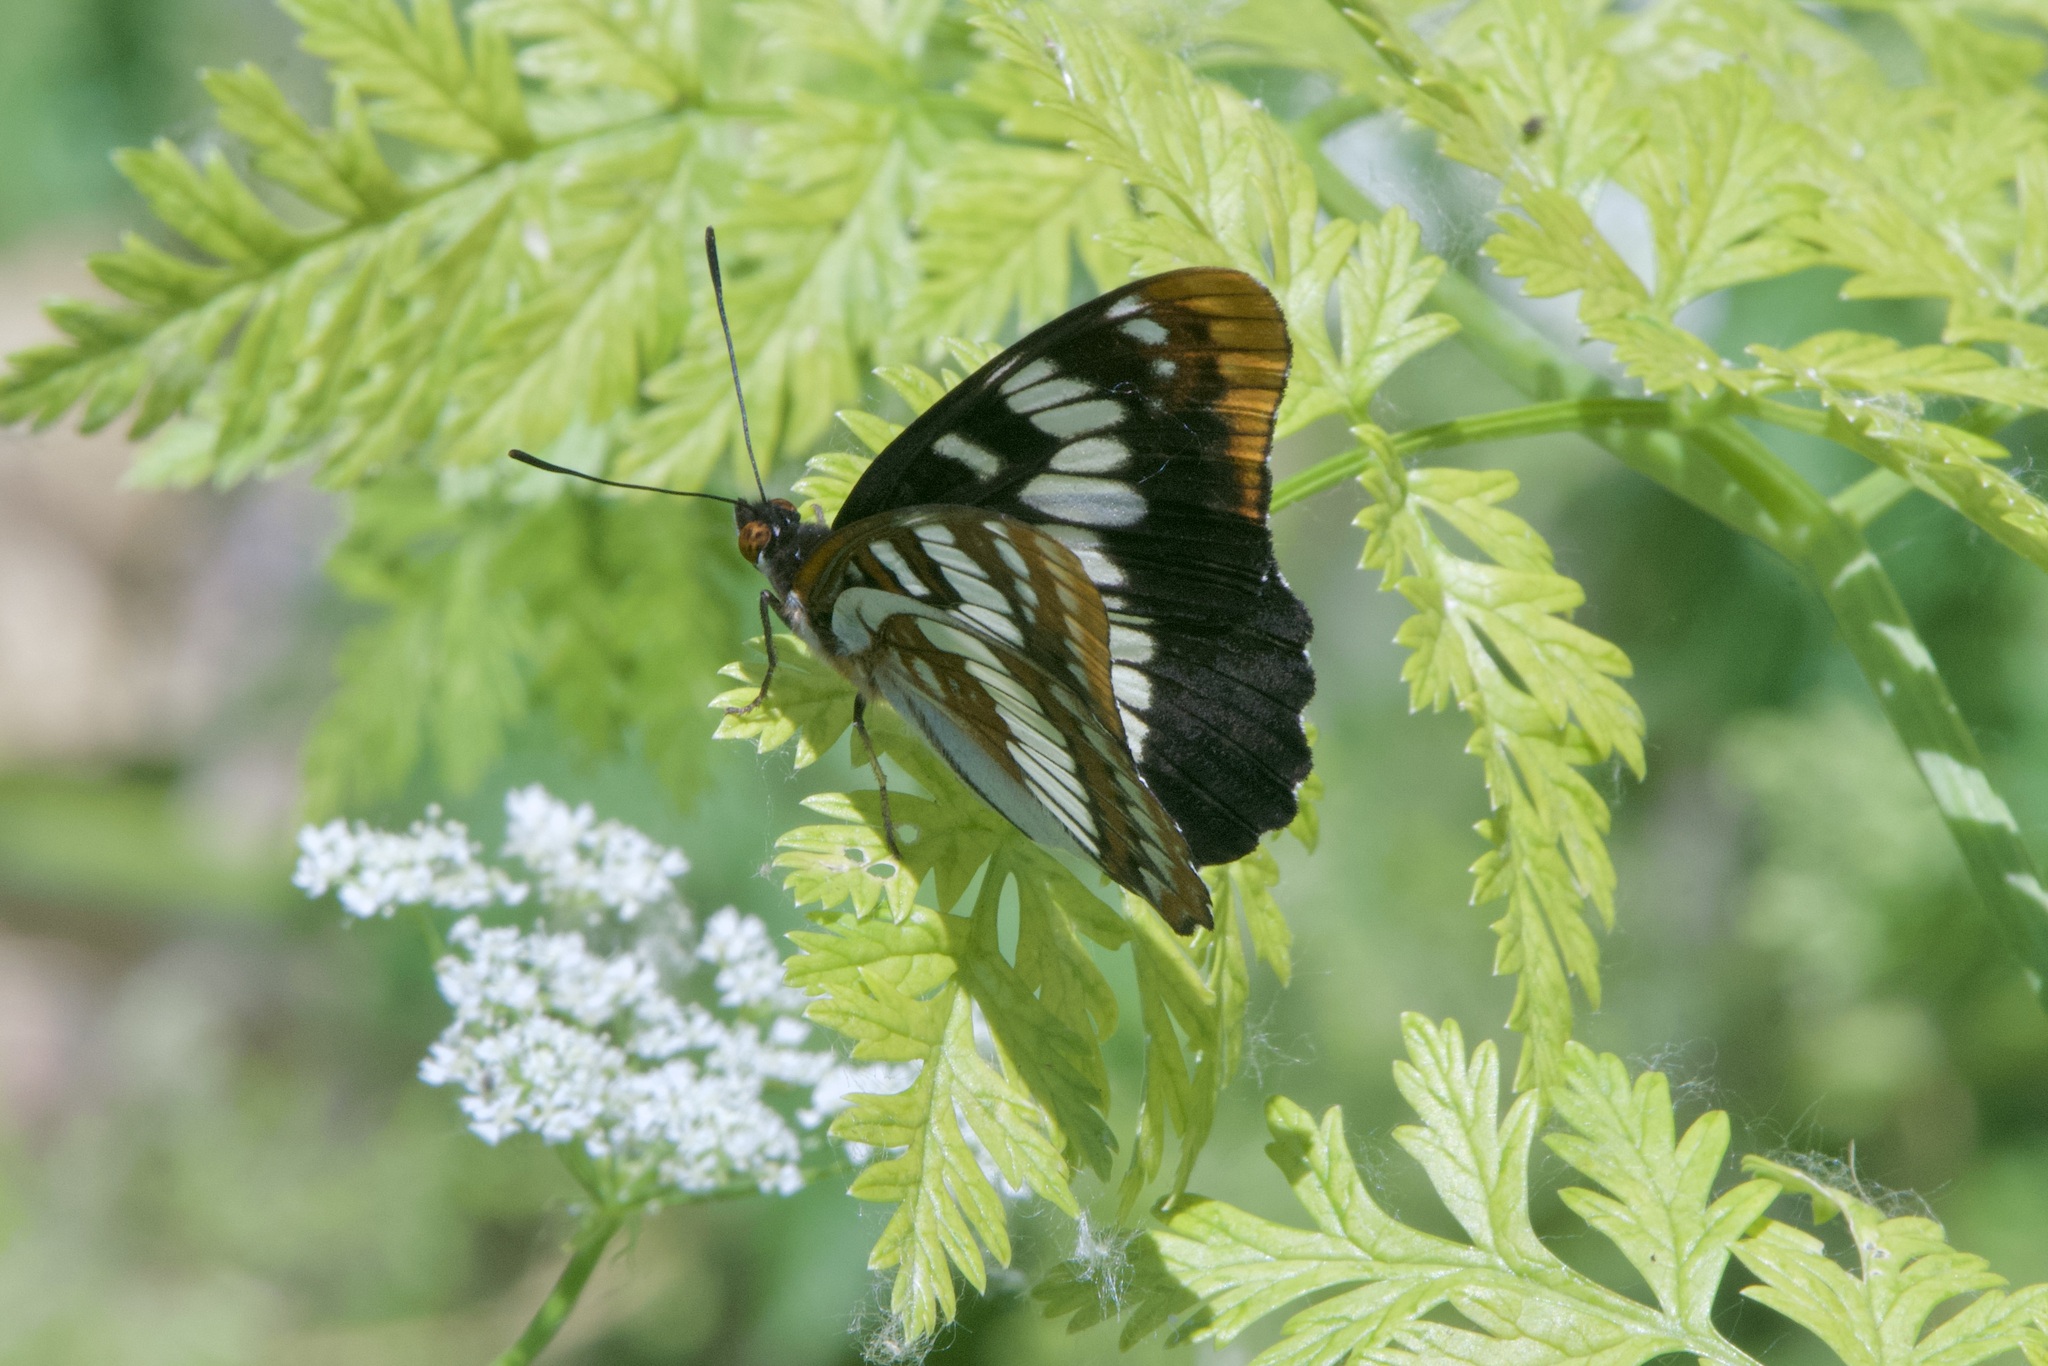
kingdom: Animalia
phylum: Arthropoda
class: Insecta
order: Lepidoptera
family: Nymphalidae
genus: Limenitis
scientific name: Limenitis lorquini
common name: Lorquin's admiral
